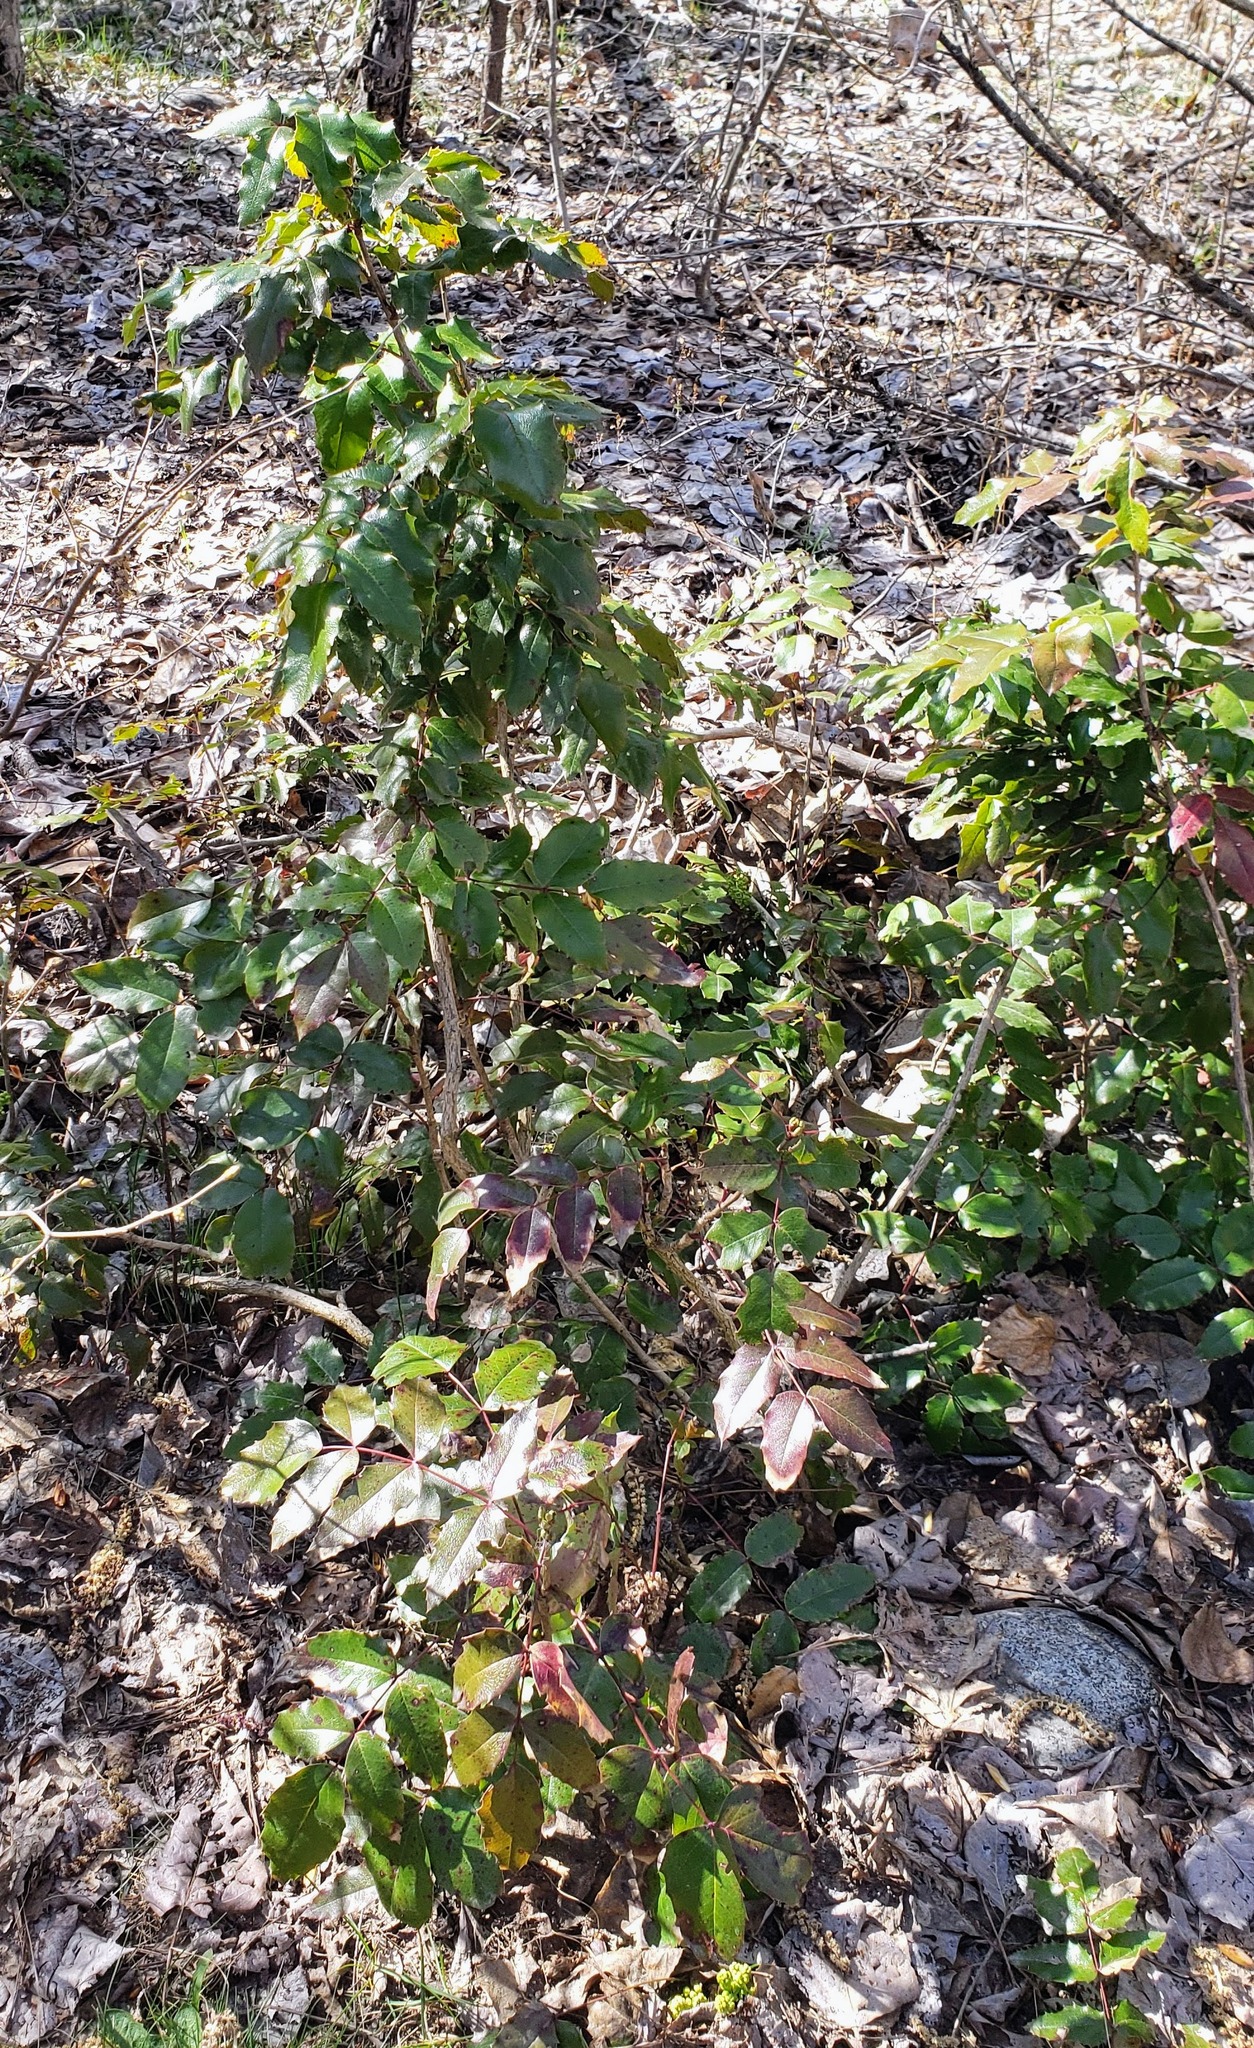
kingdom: Plantae
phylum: Tracheophyta
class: Magnoliopsida
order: Ranunculales
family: Berberidaceae
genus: Mahonia
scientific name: Mahonia aquifolium
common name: Oregon-grape
